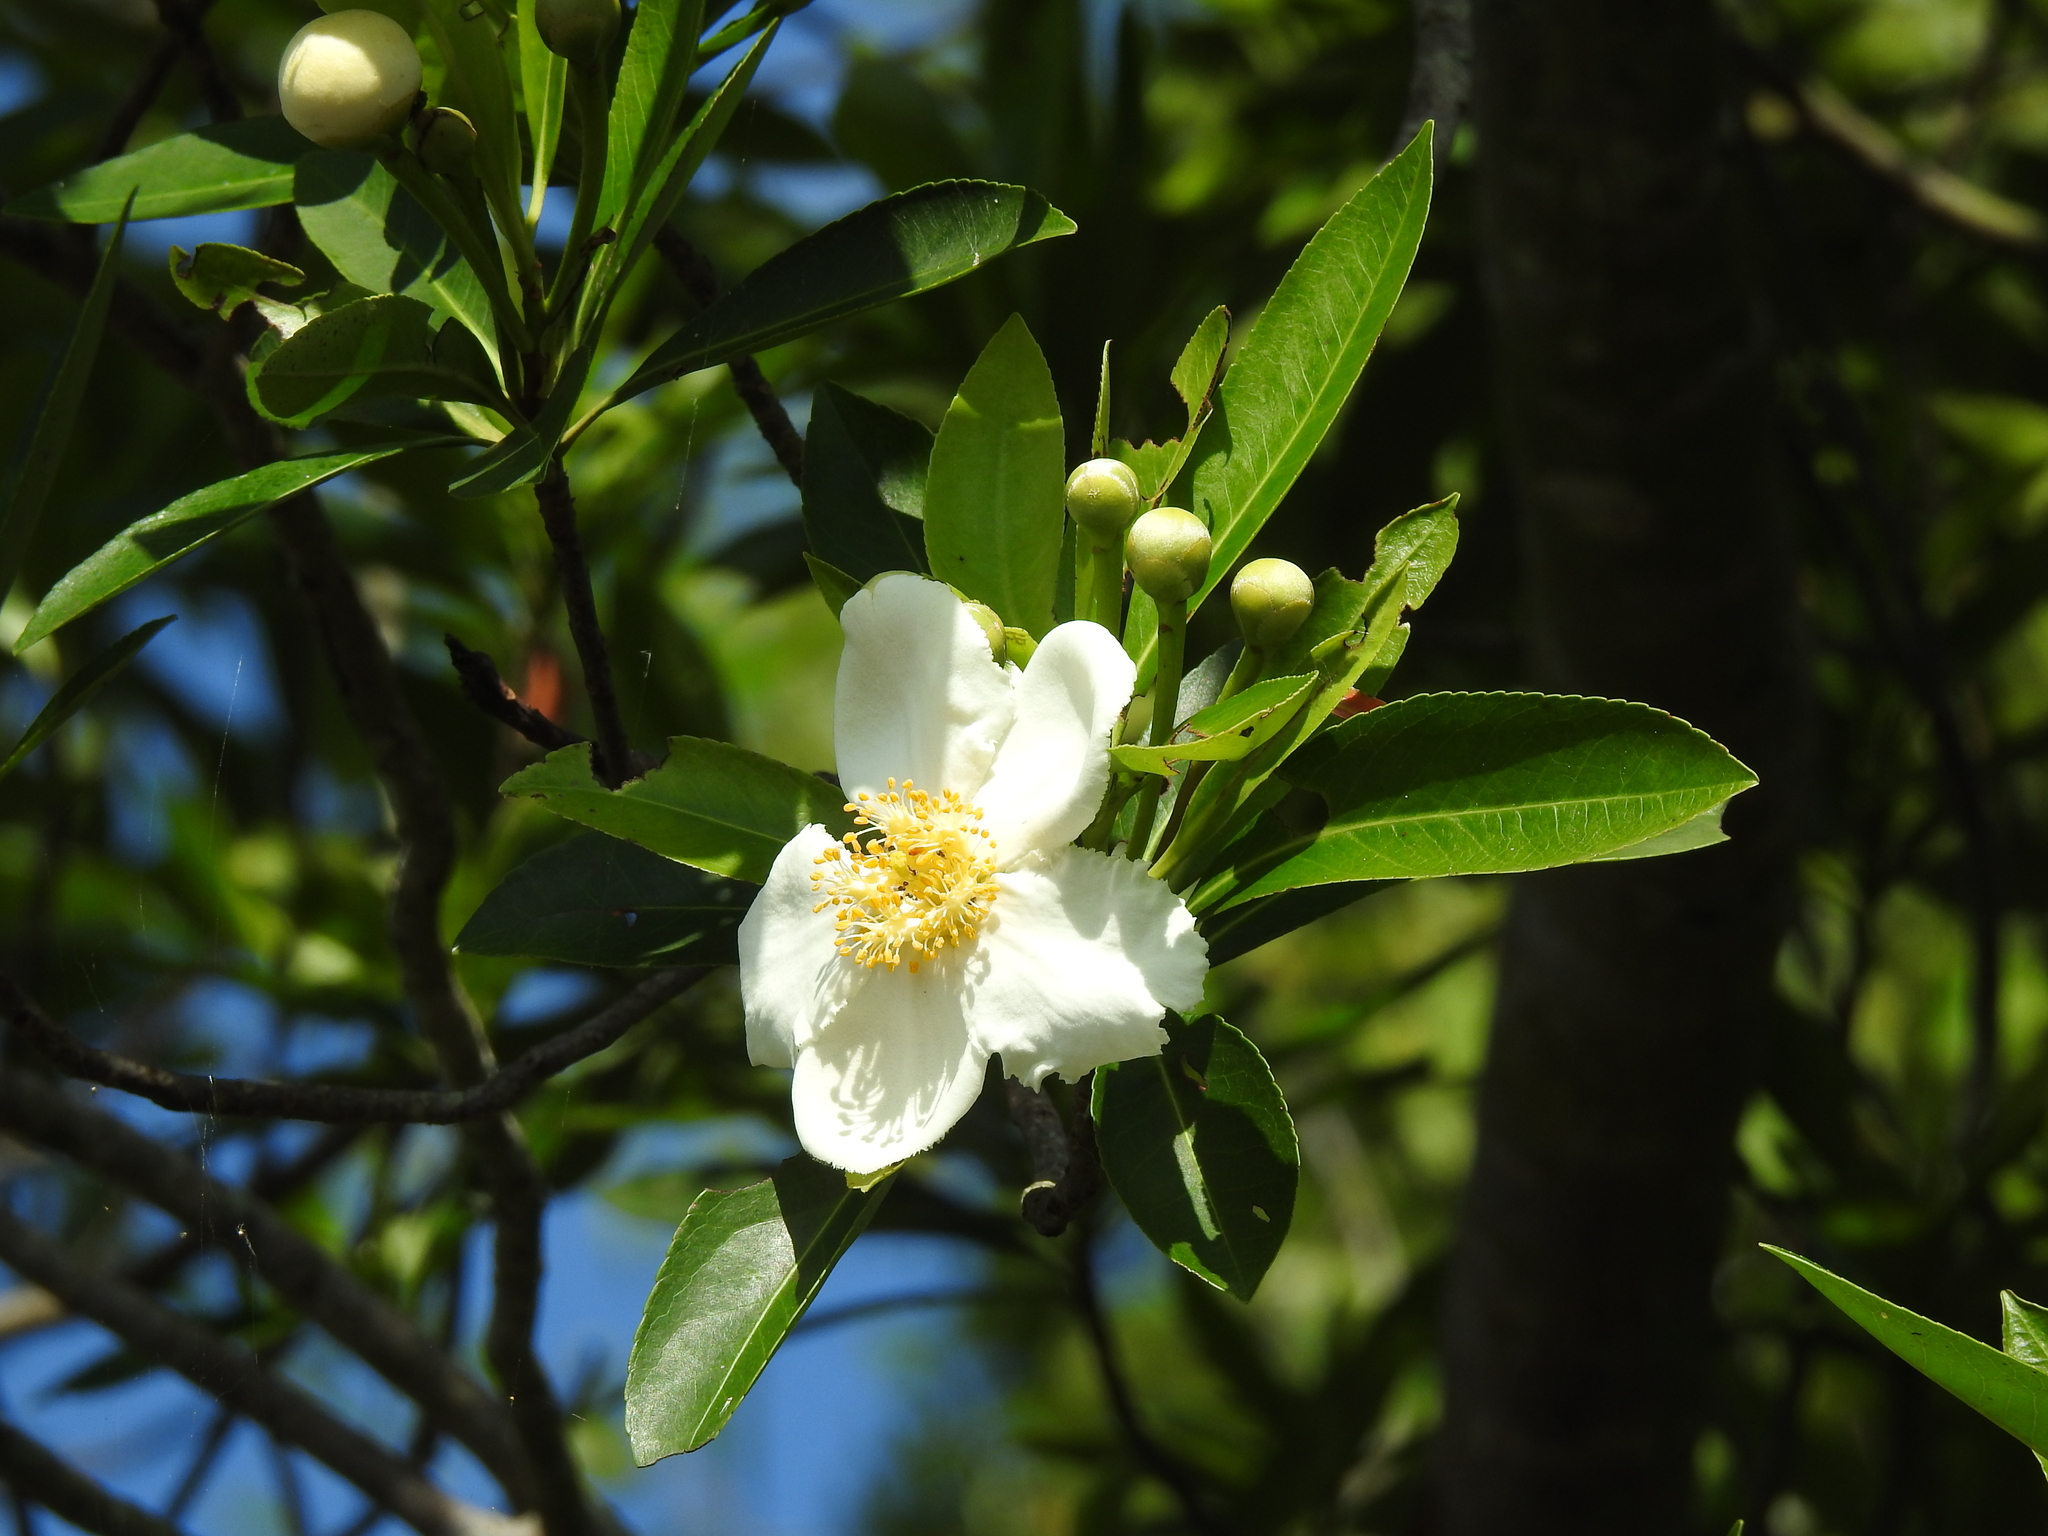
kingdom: Plantae
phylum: Tracheophyta
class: Magnoliopsida
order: Ericales
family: Theaceae
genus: Gordonia
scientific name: Gordonia lasianthus
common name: Loblolly bay
